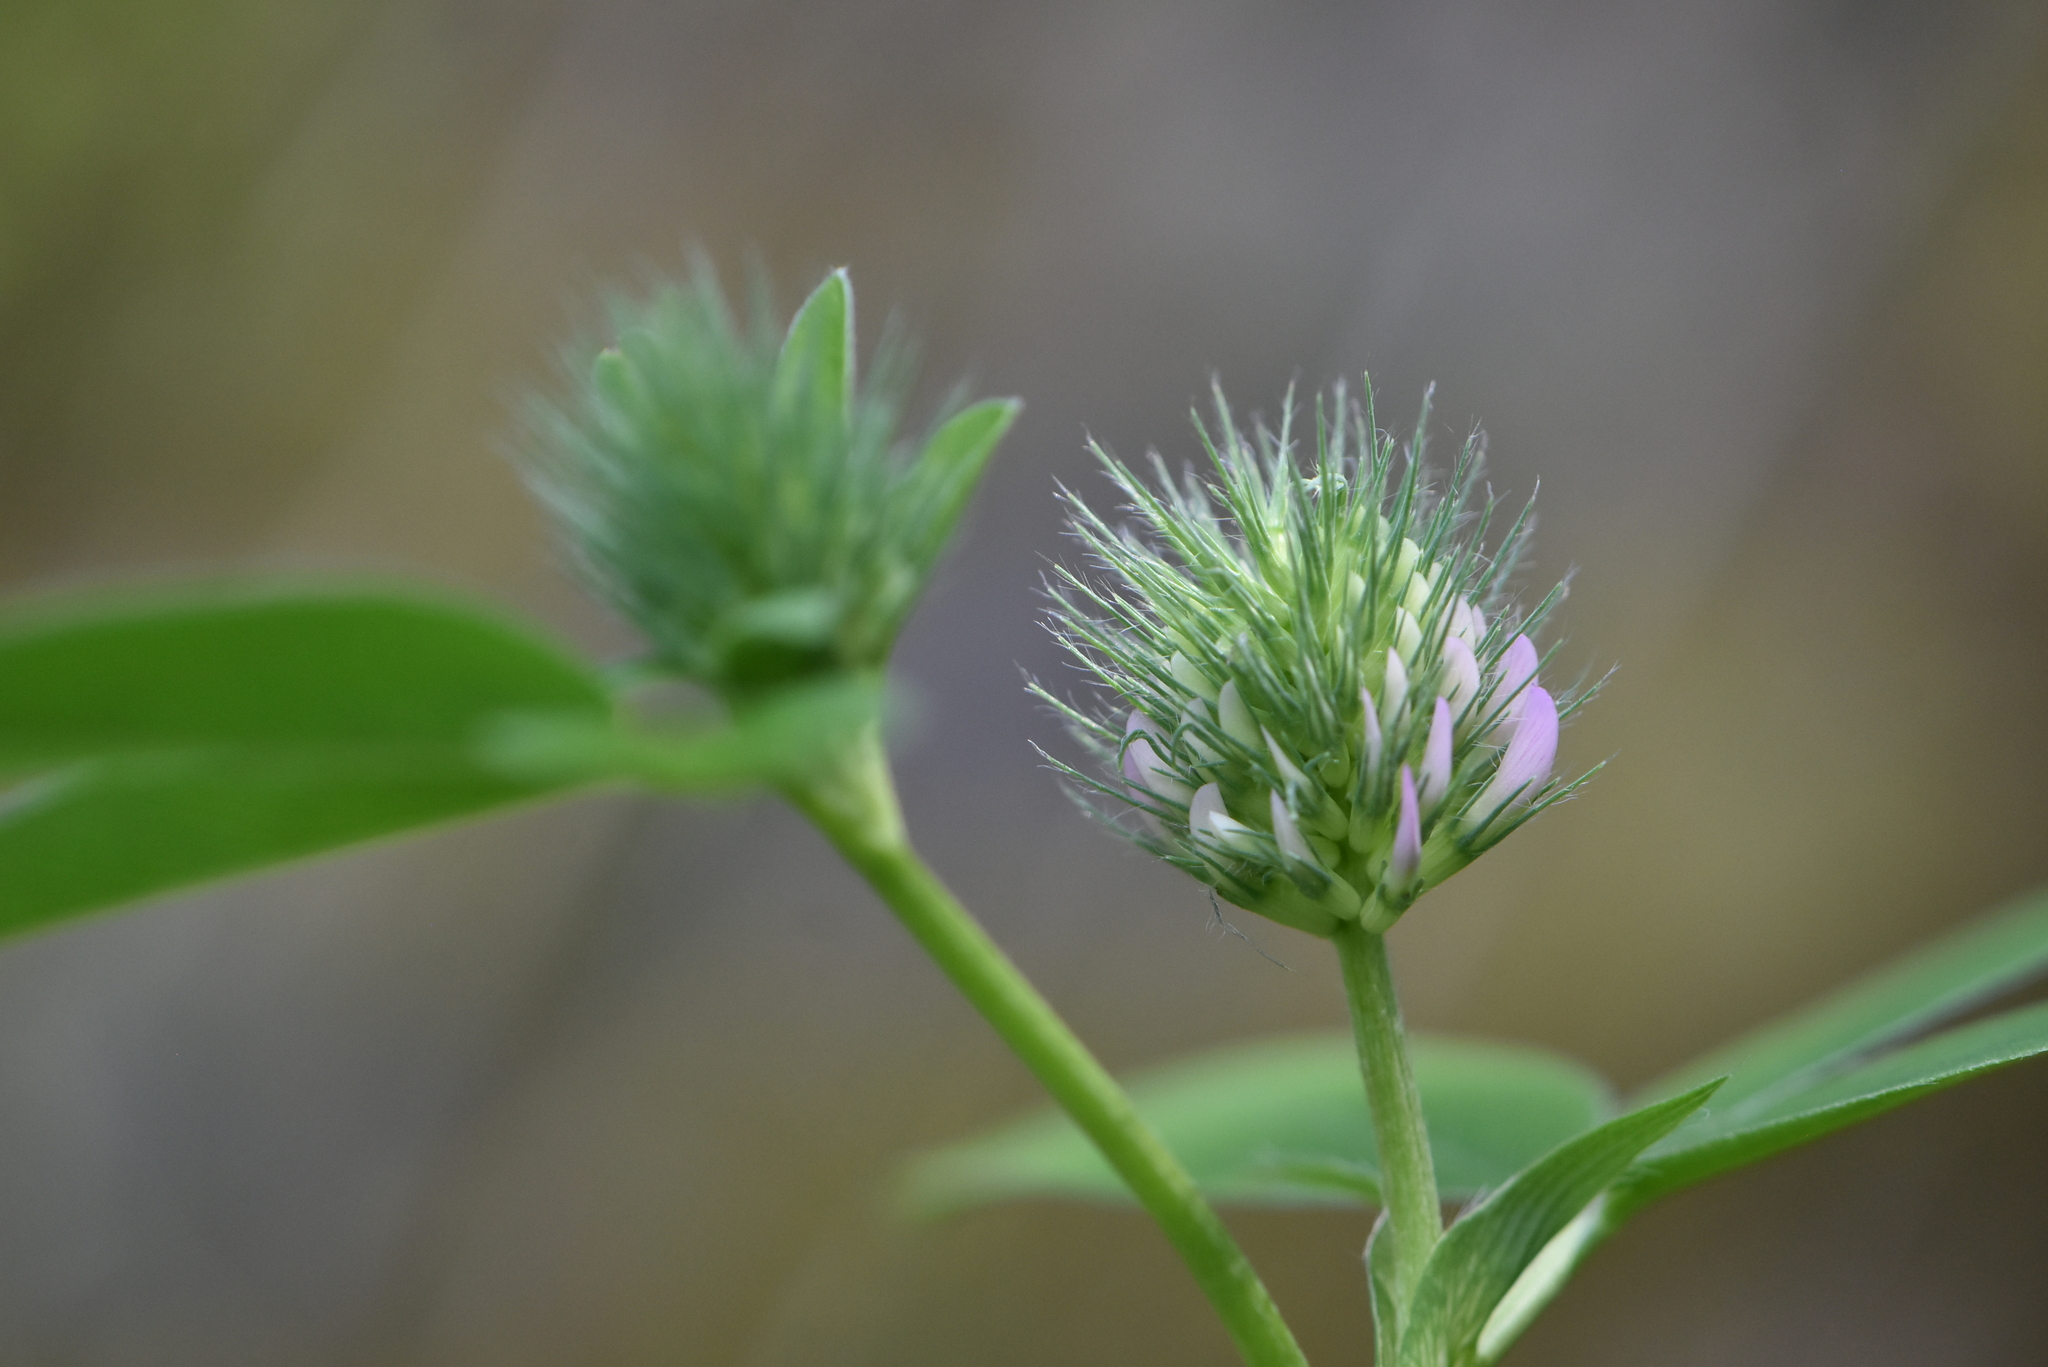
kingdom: Plantae
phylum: Tracheophyta
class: Magnoliopsida
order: Fabales
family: Fabaceae
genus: Trifolium
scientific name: Trifolium medium
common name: Zigzag clover
